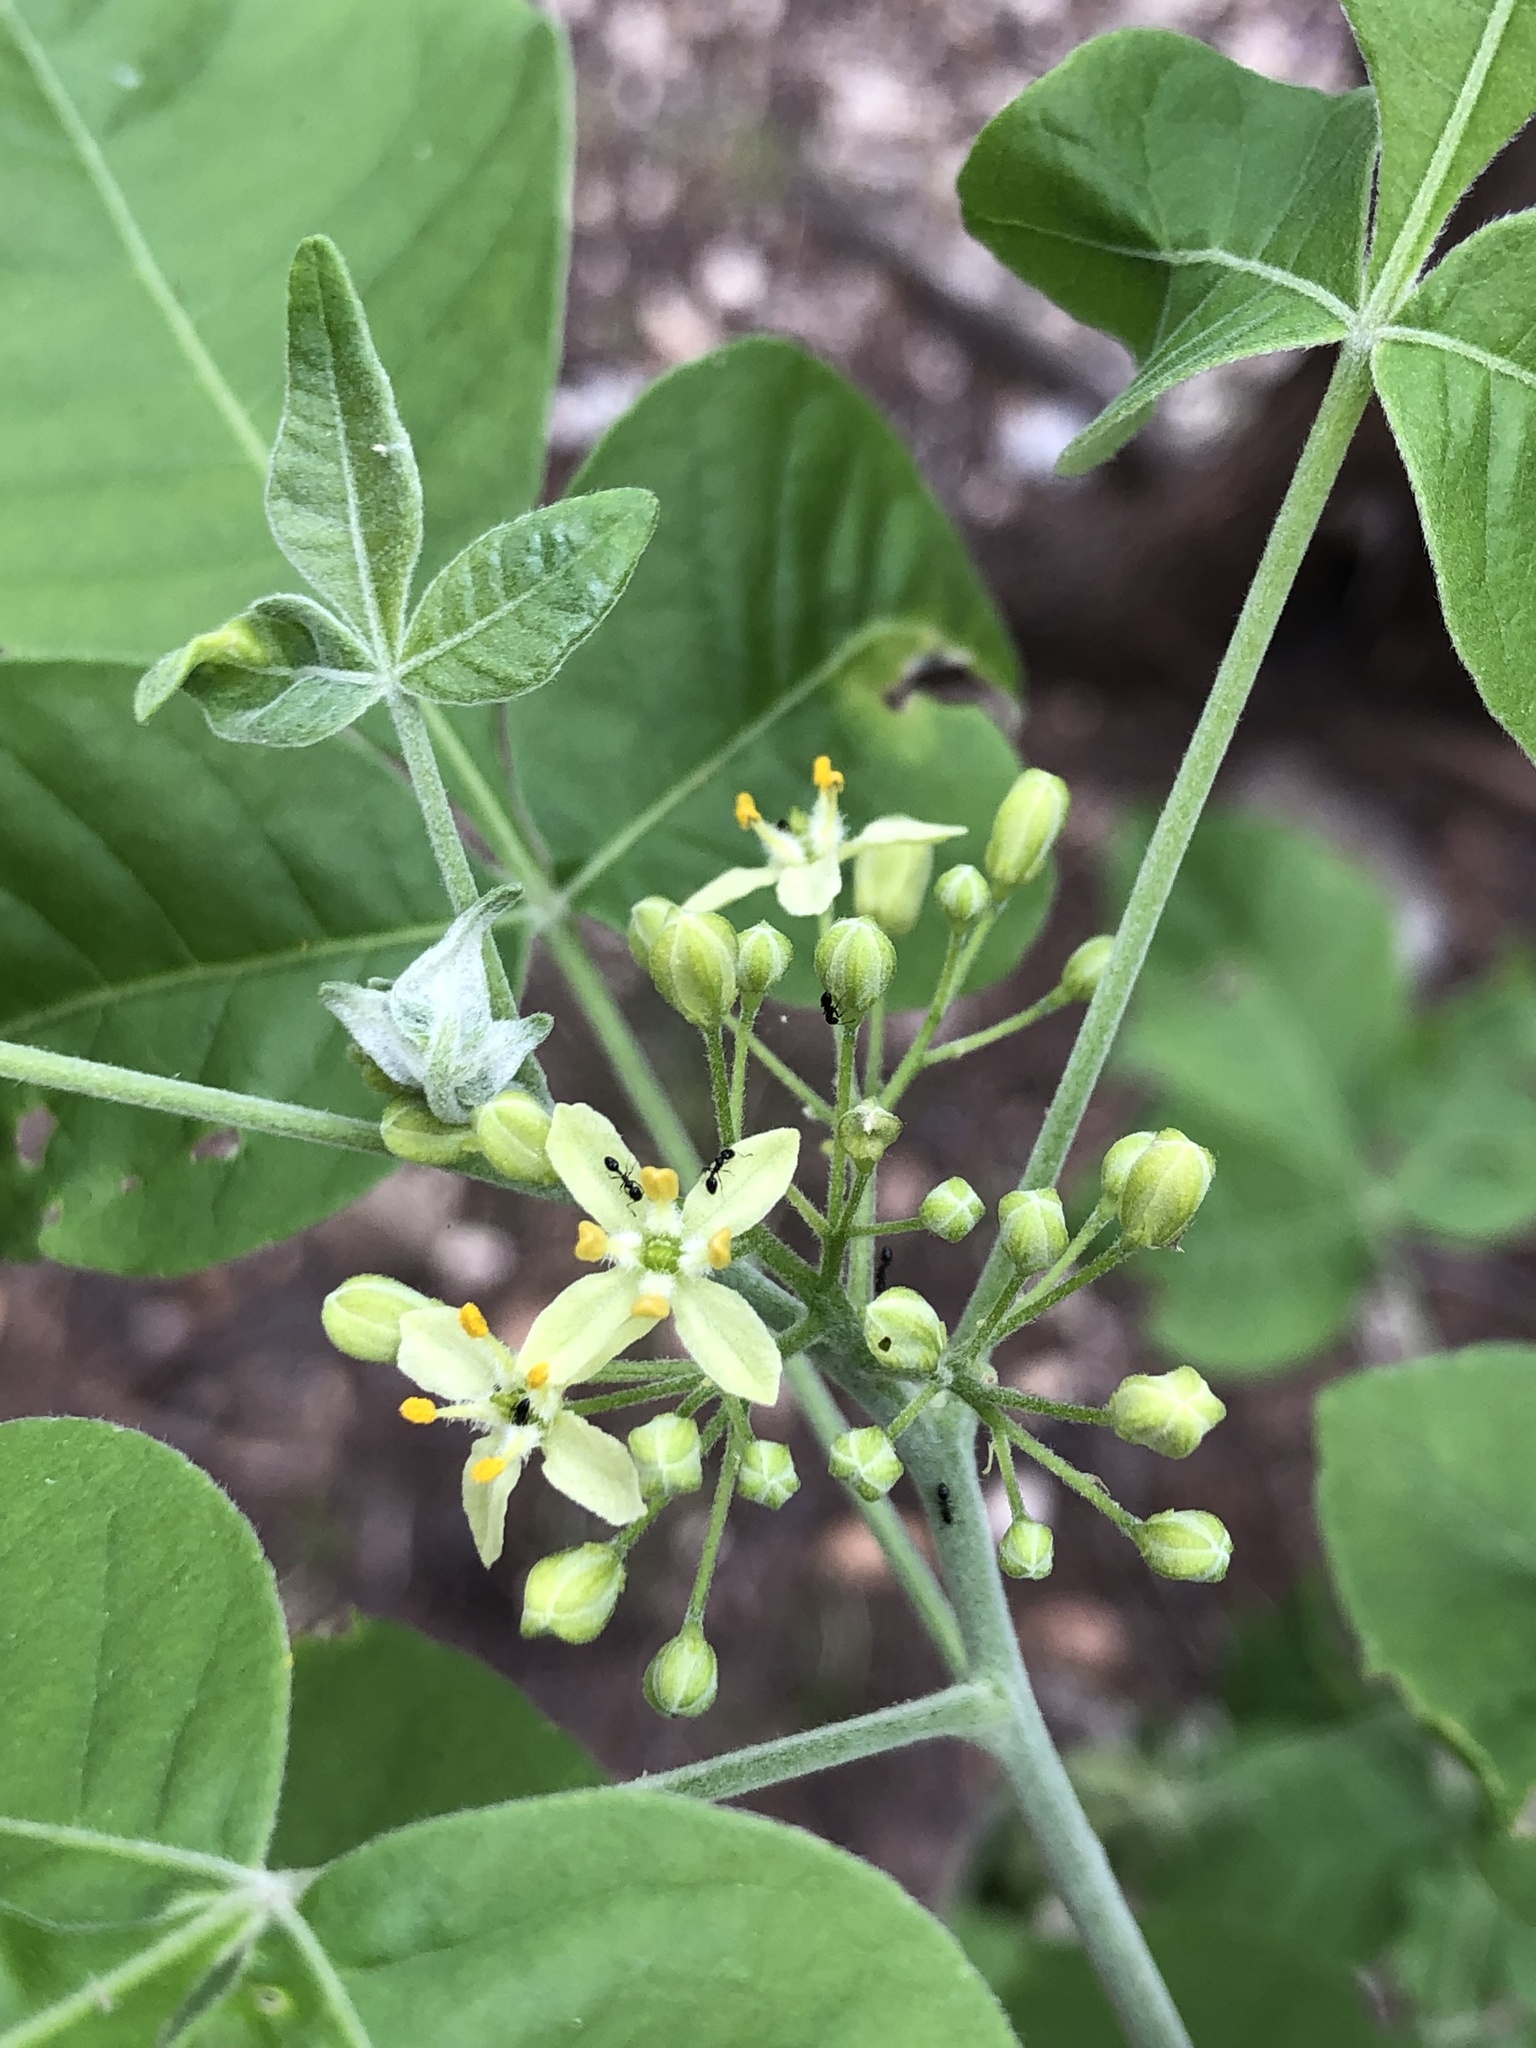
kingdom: Plantae
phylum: Tracheophyta
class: Magnoliopsida
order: Sapindales
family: Rutaceae
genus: Ptelea
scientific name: Ptelea trifoliata
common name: Common hop-tree
